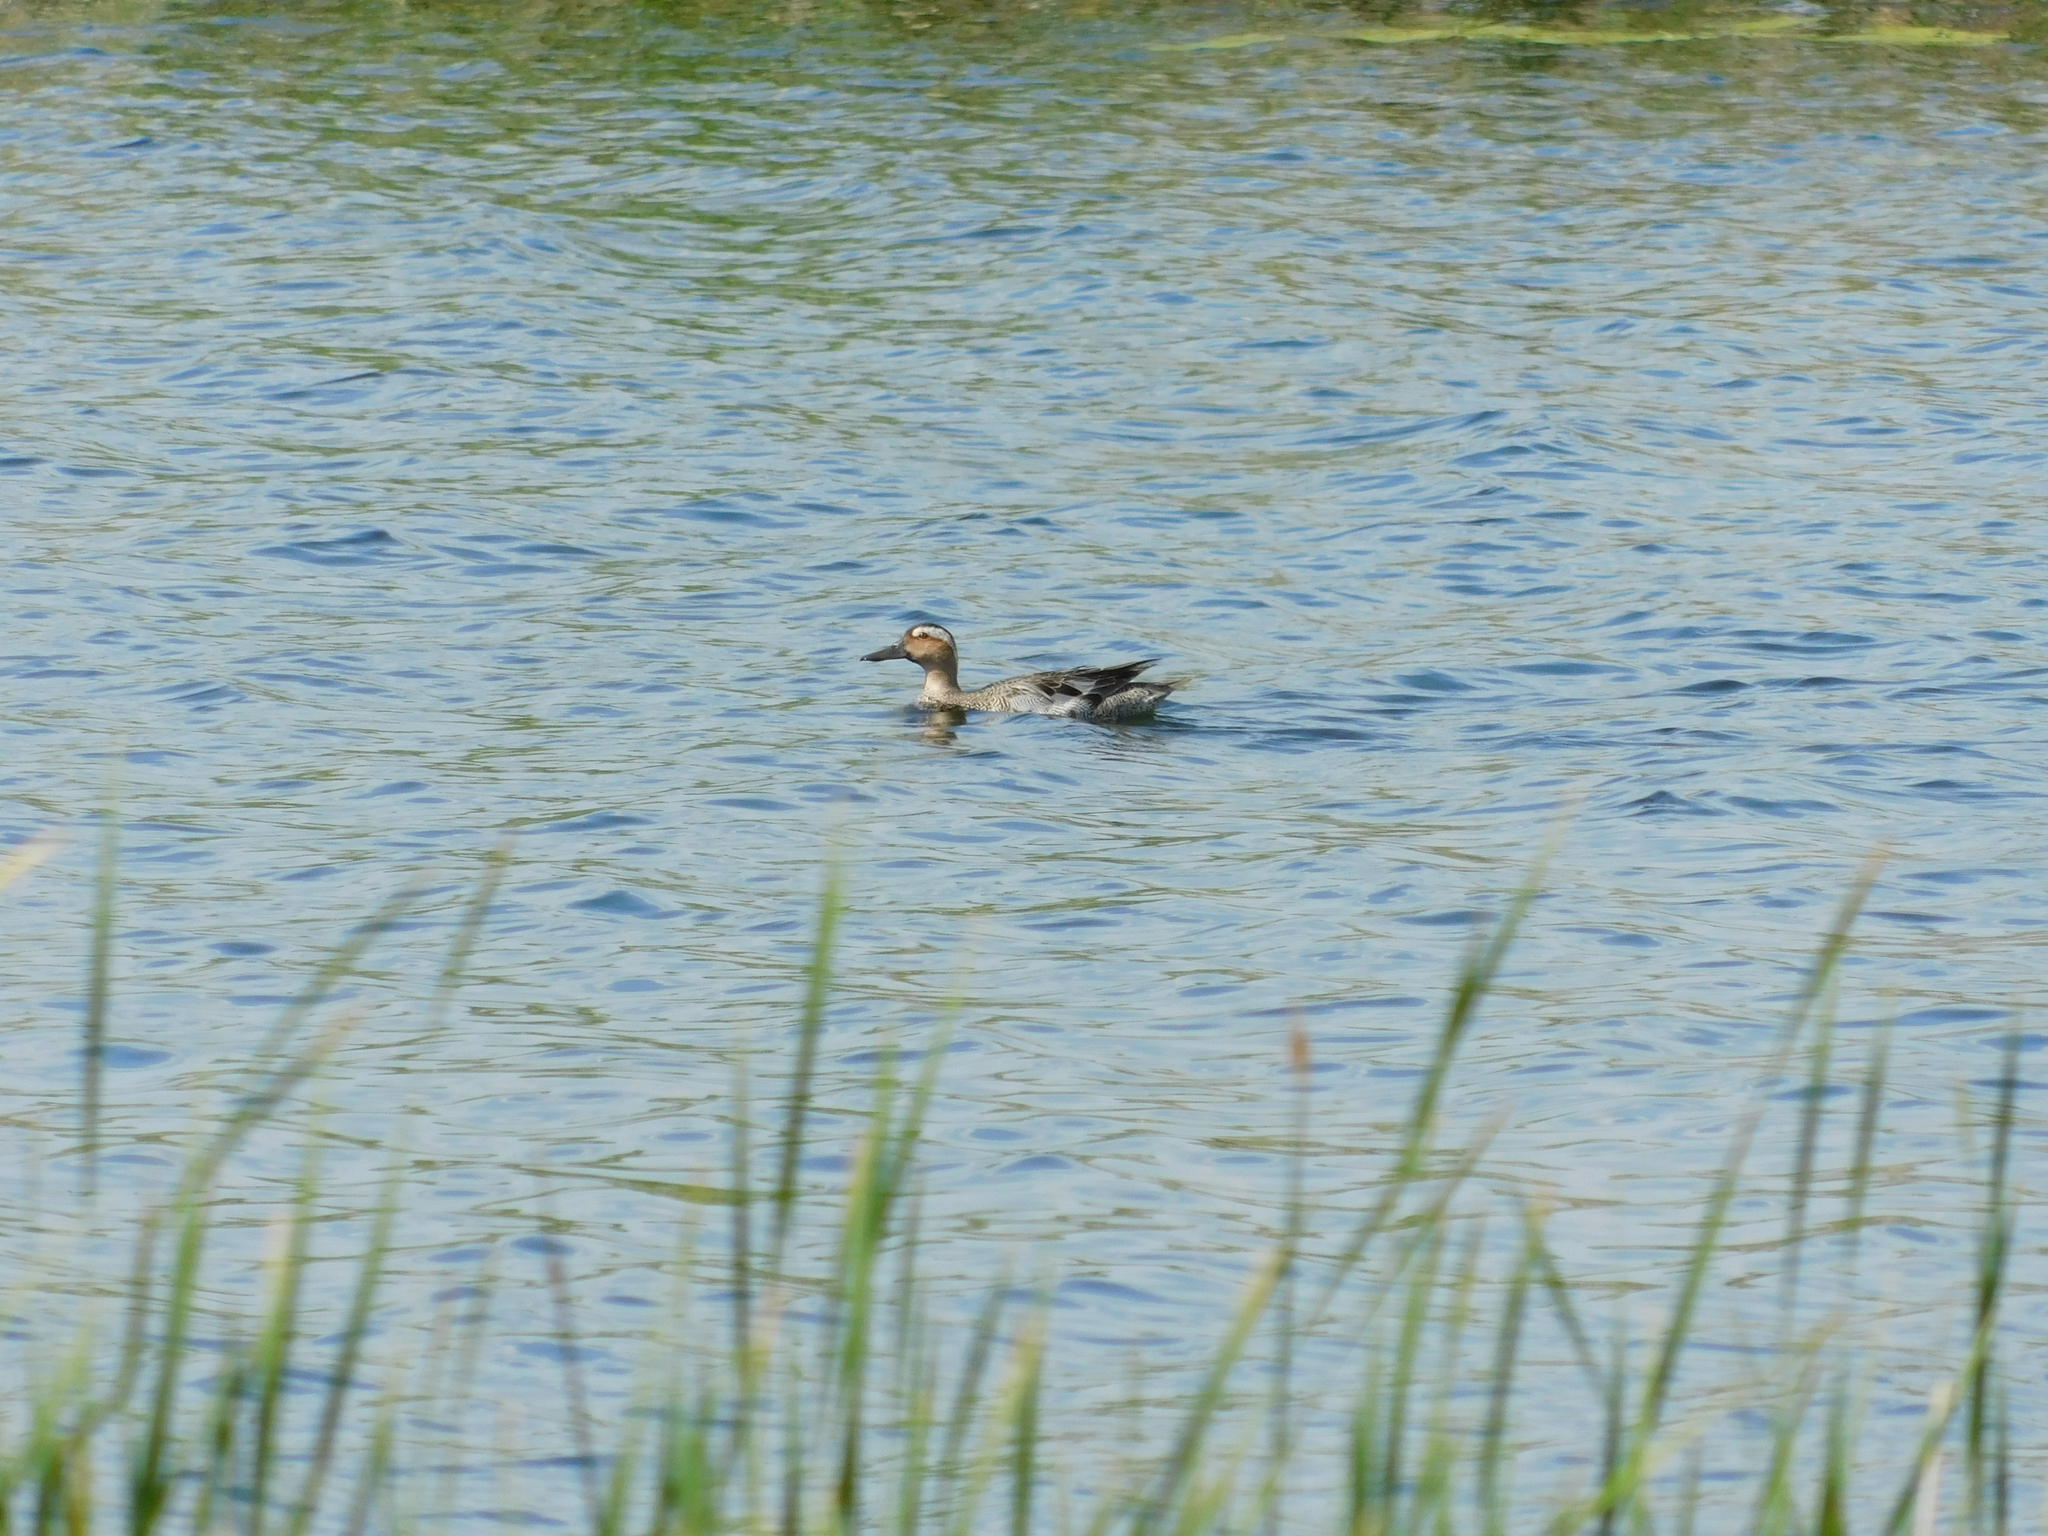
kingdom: Animalia
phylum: Chordata
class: Aves
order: Anseriformes
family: Anatidae
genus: Spatula
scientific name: Spatula querquedula
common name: Garganey
